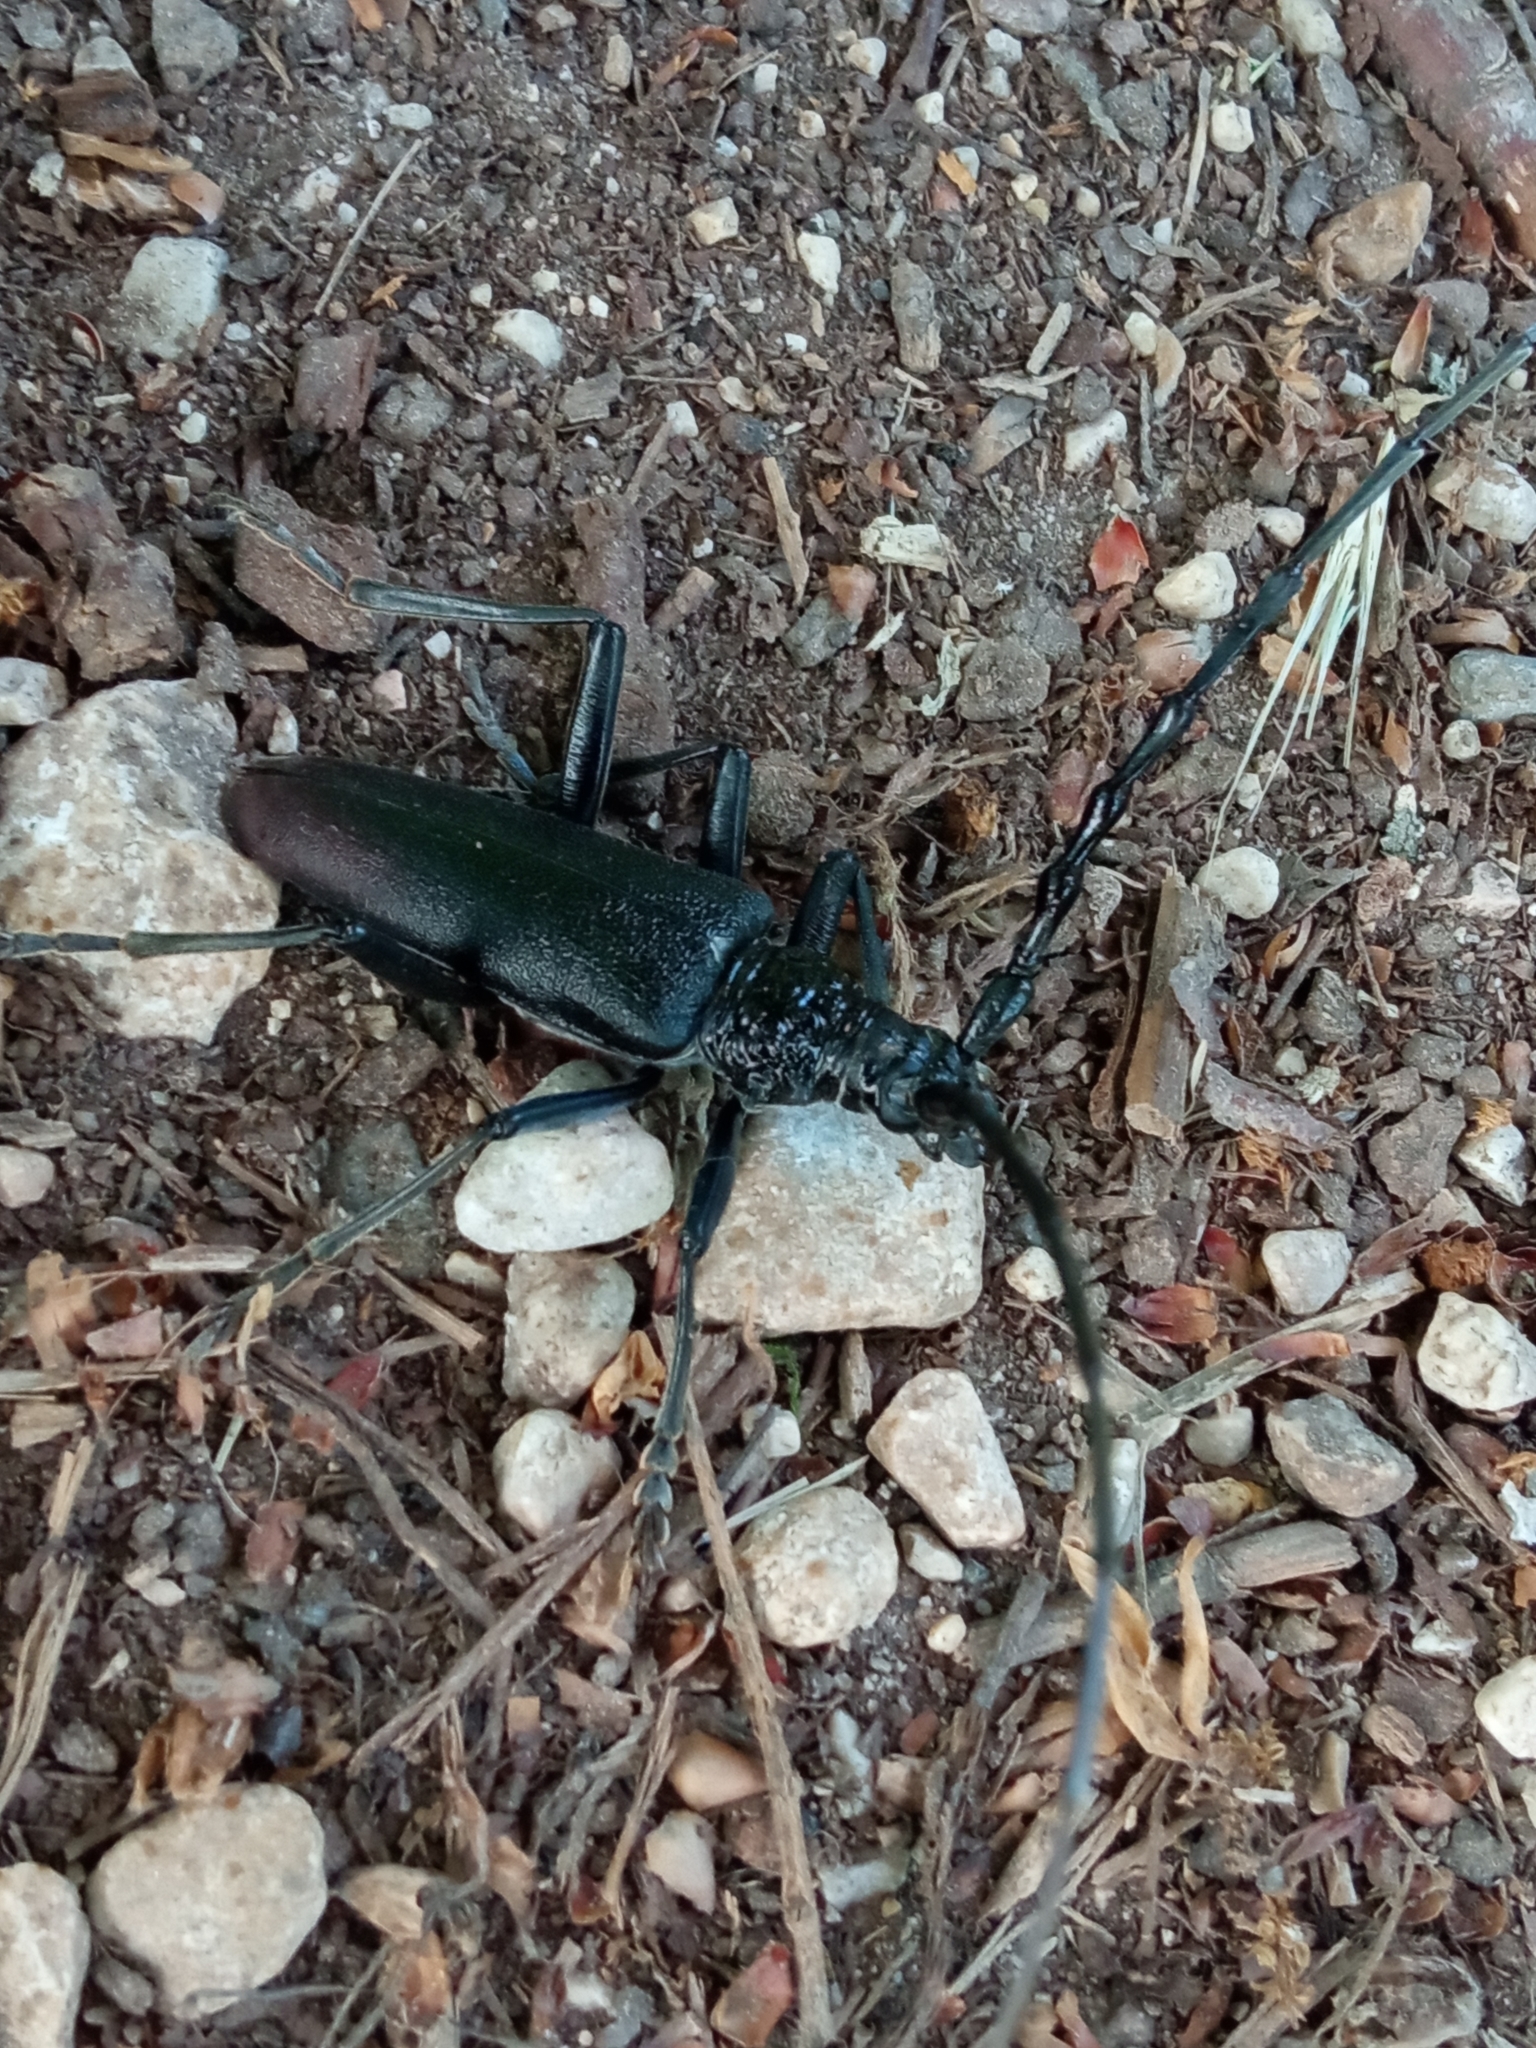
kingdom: Animalia
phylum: Arthropoda
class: Insecta
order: Coleoptera
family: Cerambycidae
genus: Cerambyx
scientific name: Cerambyx cerdo
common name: Cerambyx longicorn
